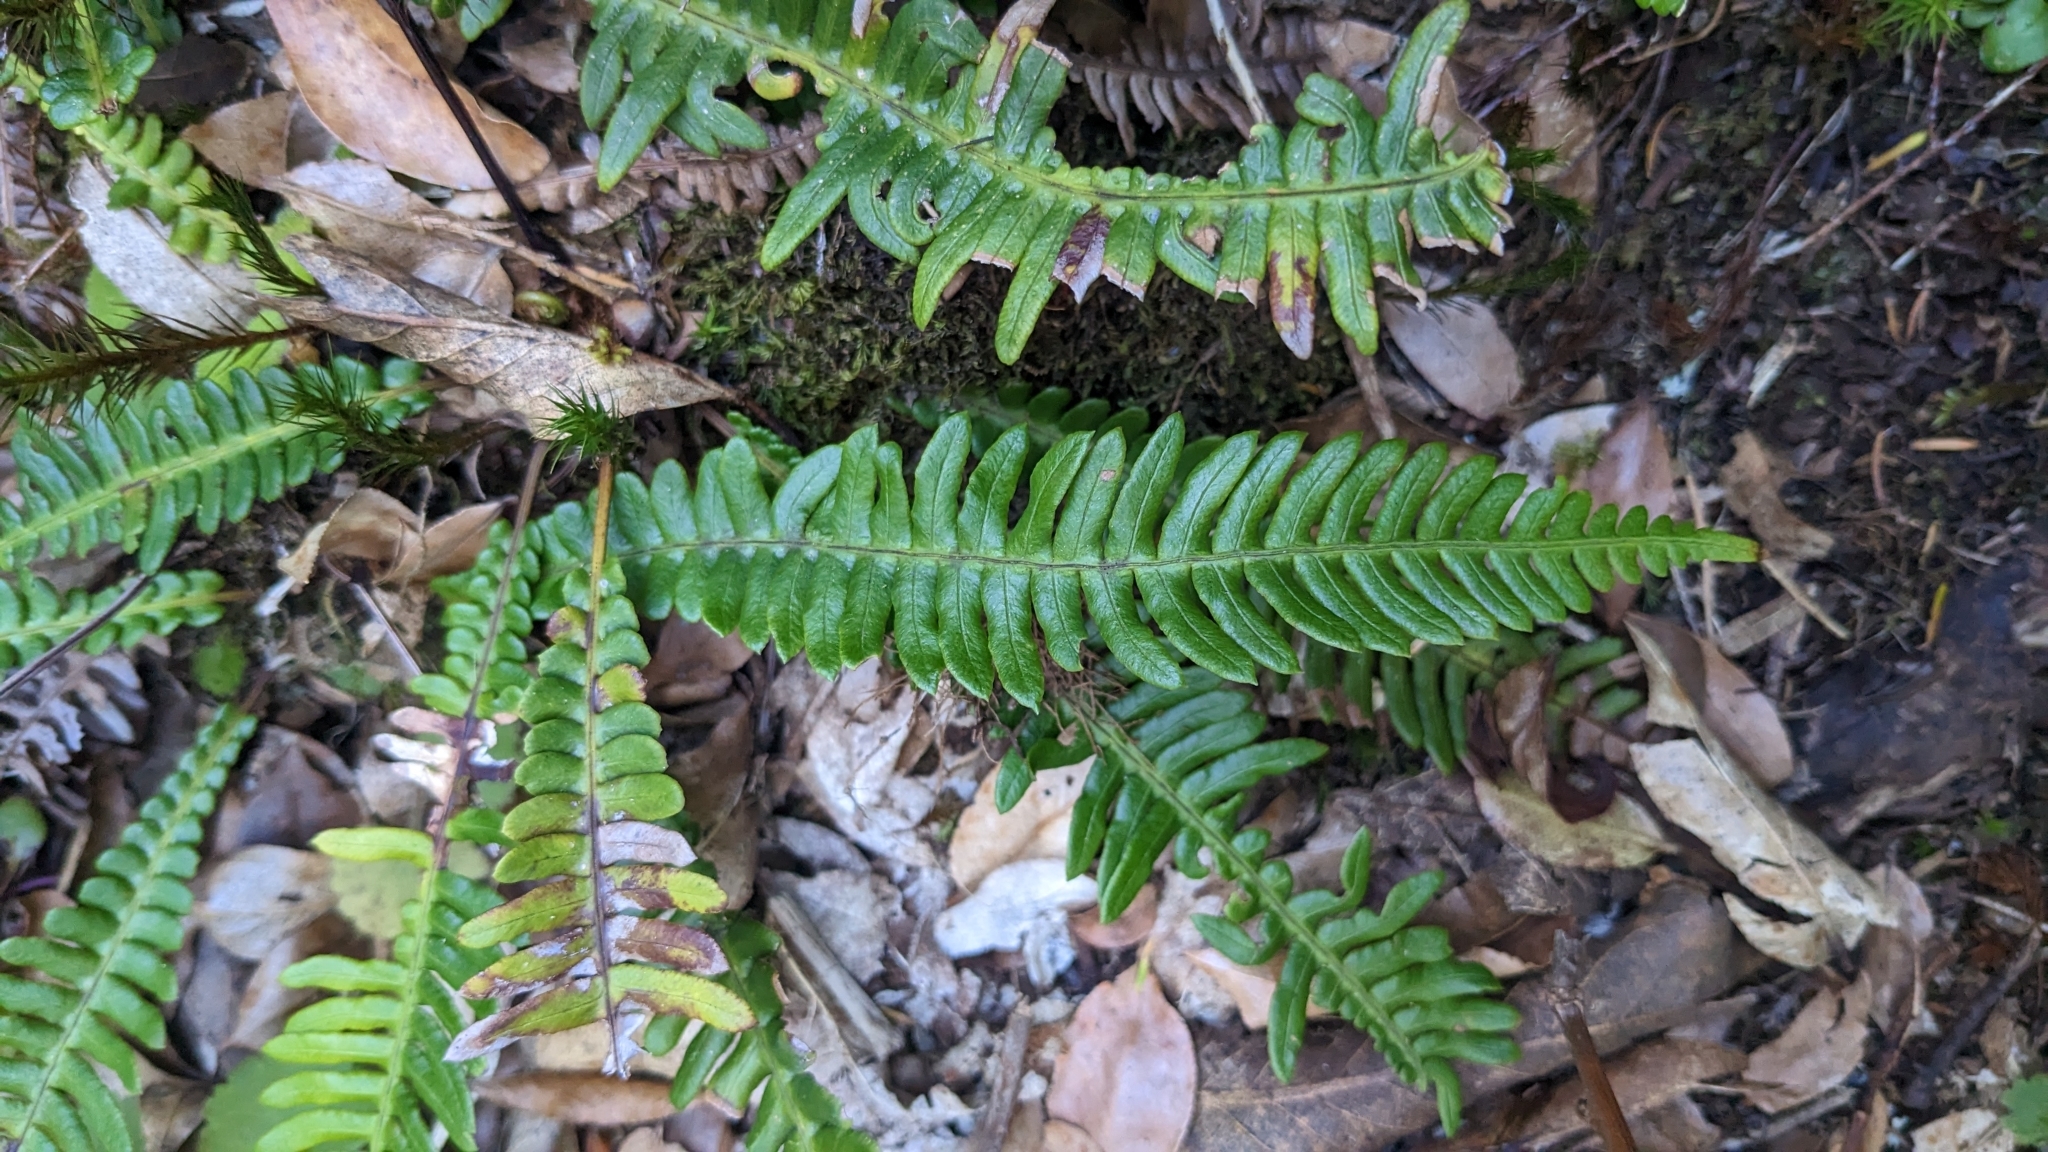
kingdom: Plantae
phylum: Tracheophyta
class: Polypodiopsida
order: Polypodiales
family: Blechnaceae
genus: Struthiopteris
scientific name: Struthiopteris spicant
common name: Deer fern
